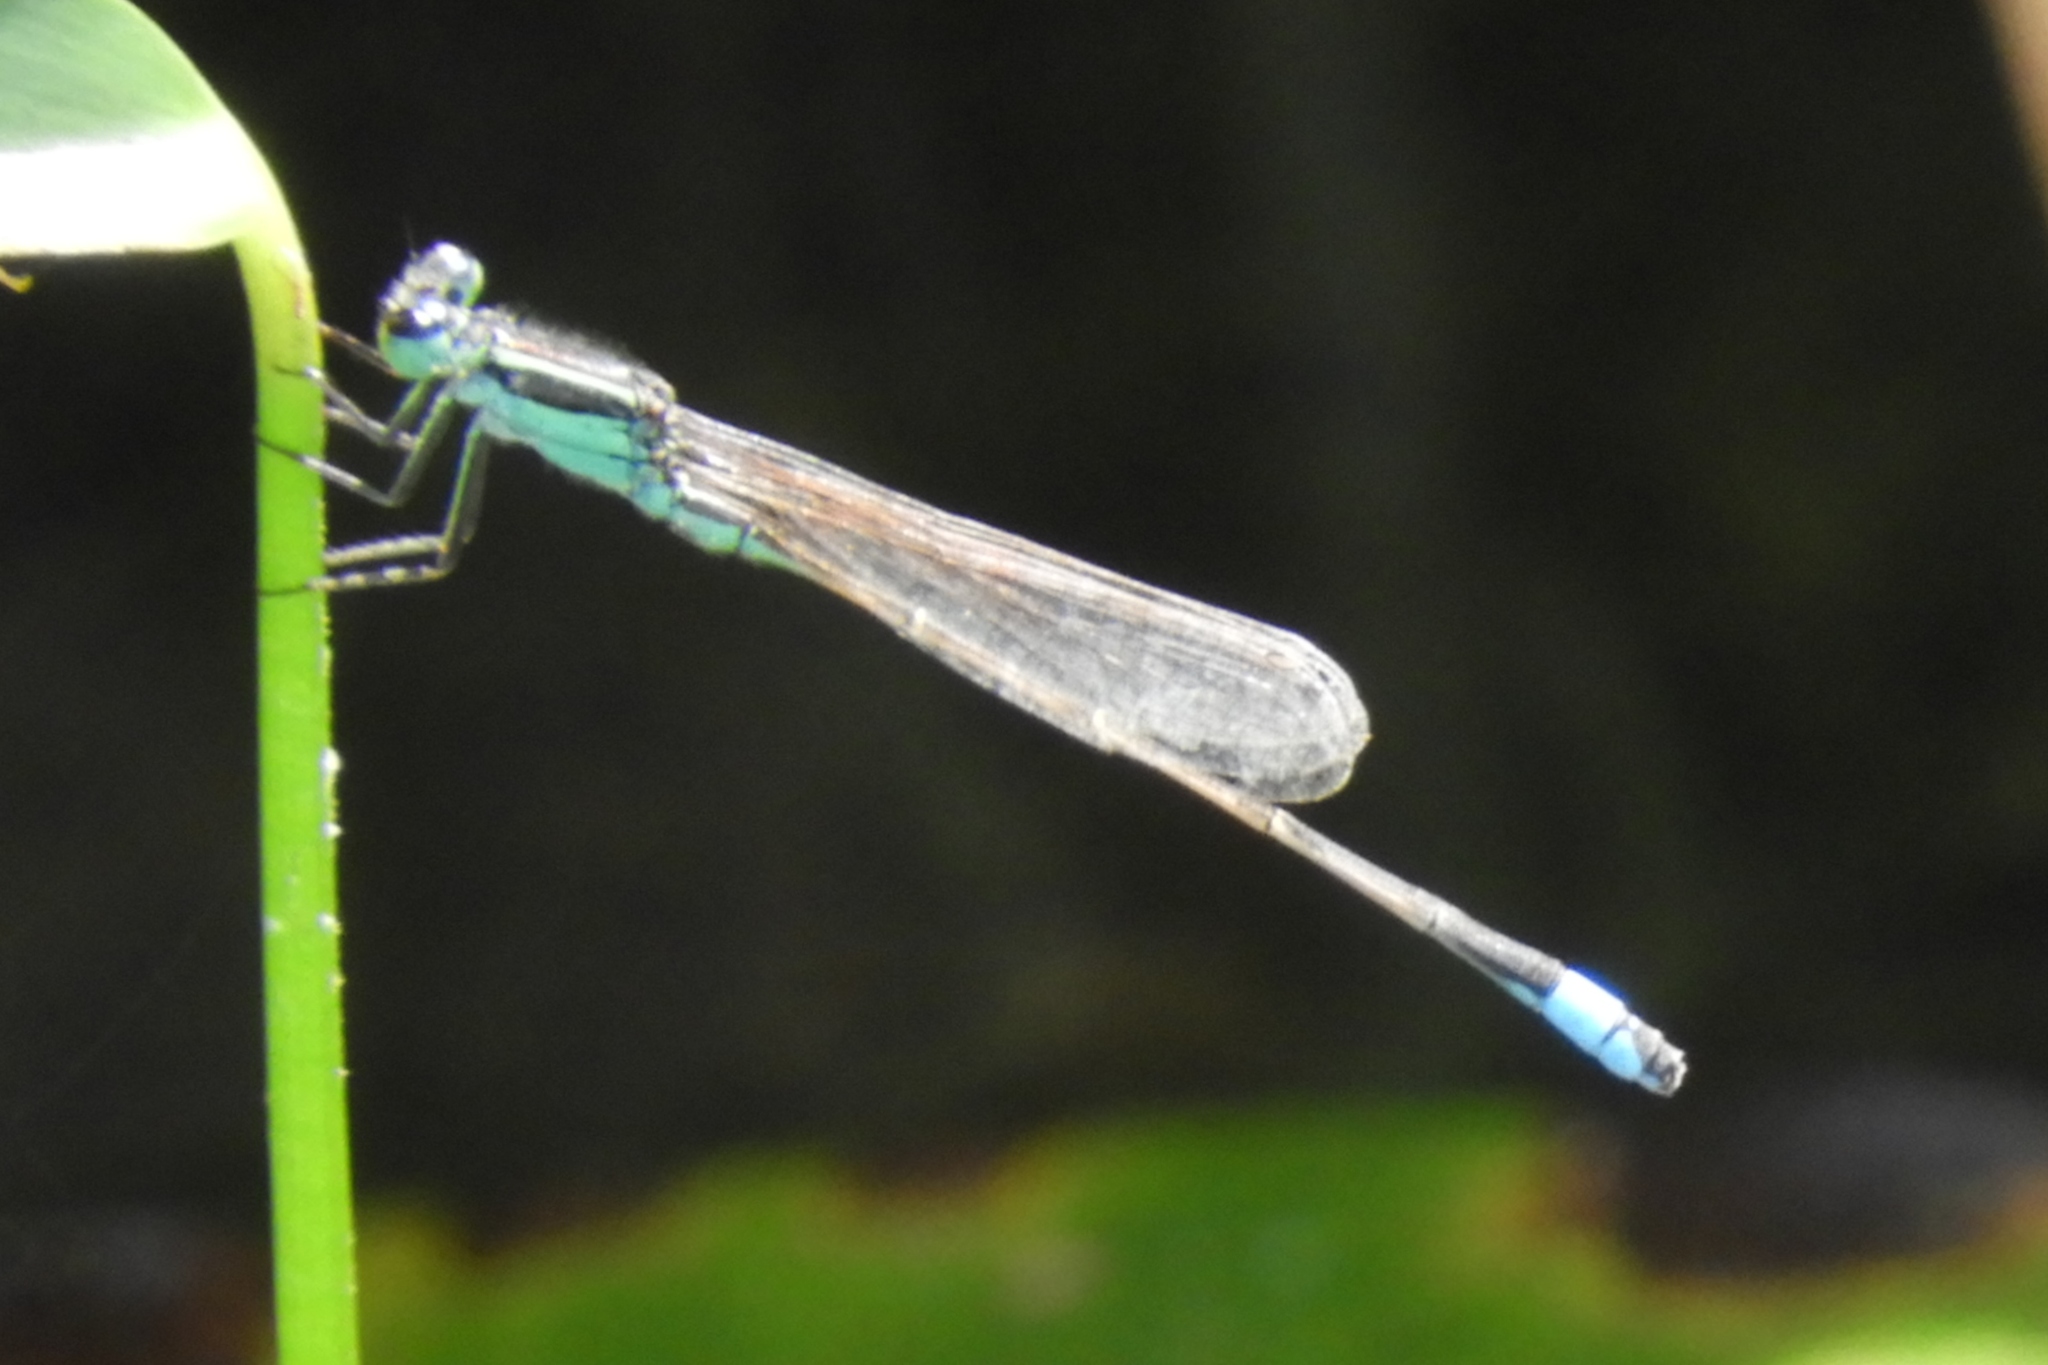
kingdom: Animalia
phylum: Arthropoda
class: Insecta
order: Odonata
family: Coenagrionidae
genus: Ischnura
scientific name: Ischnura ramburii
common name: Rambur's forktail
